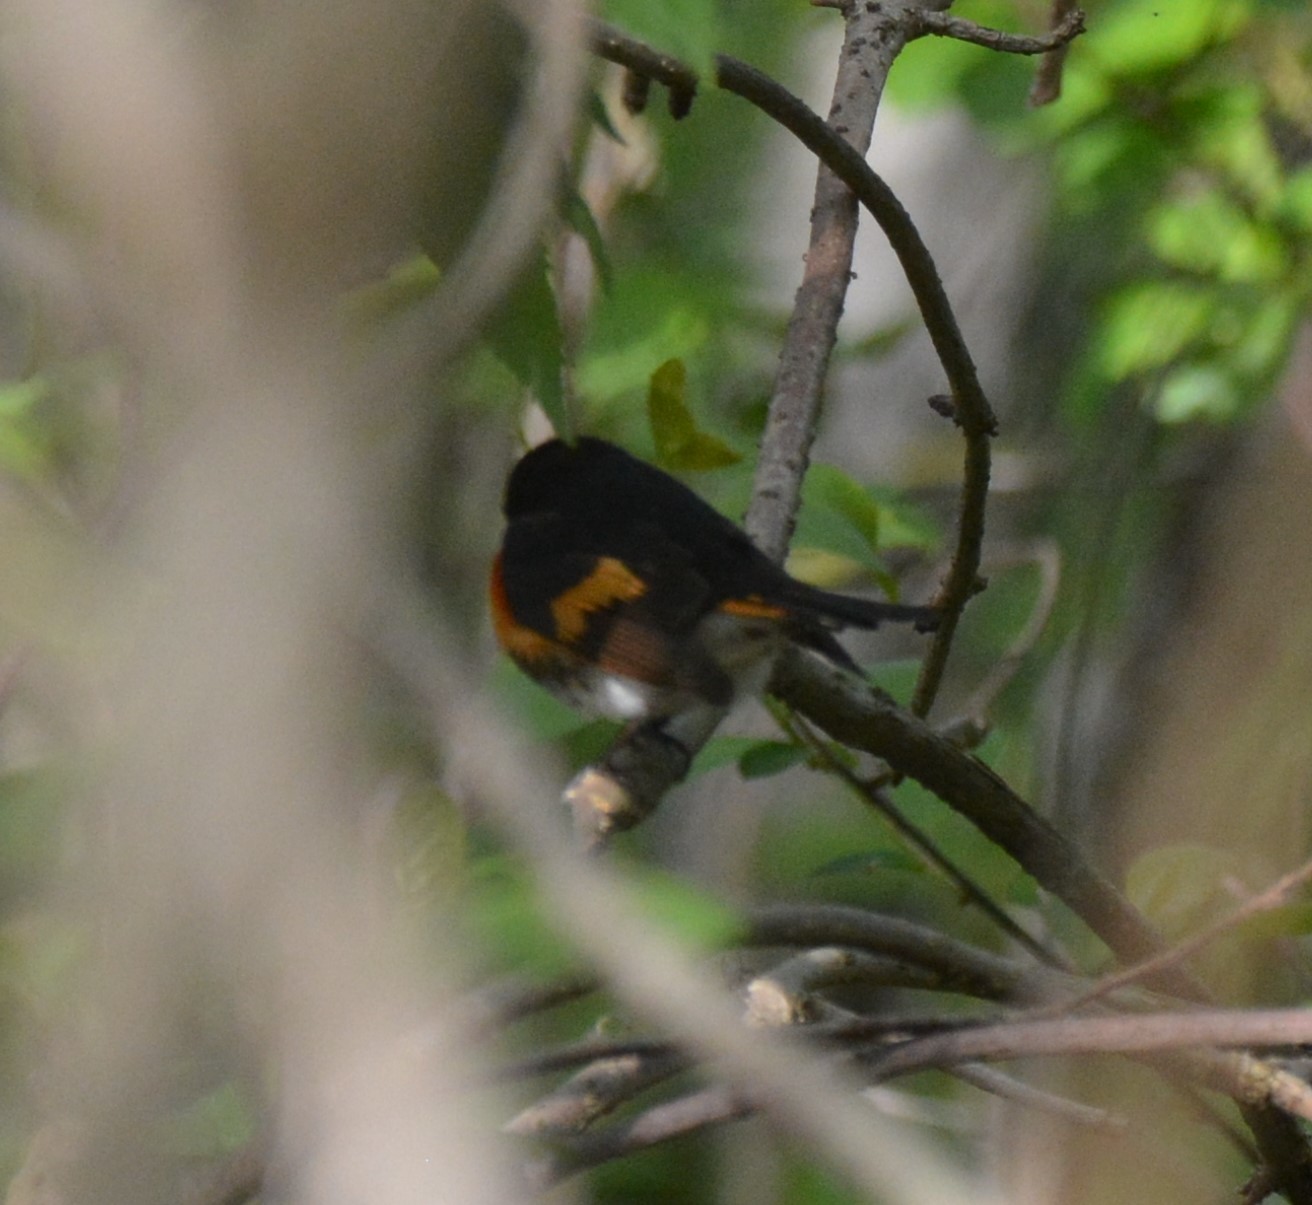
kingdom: Animalia
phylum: Chordata
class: Aves
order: Passeriformes
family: Parulidae
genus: Setophaga
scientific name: Setophaga ruticilla
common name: American redstart
